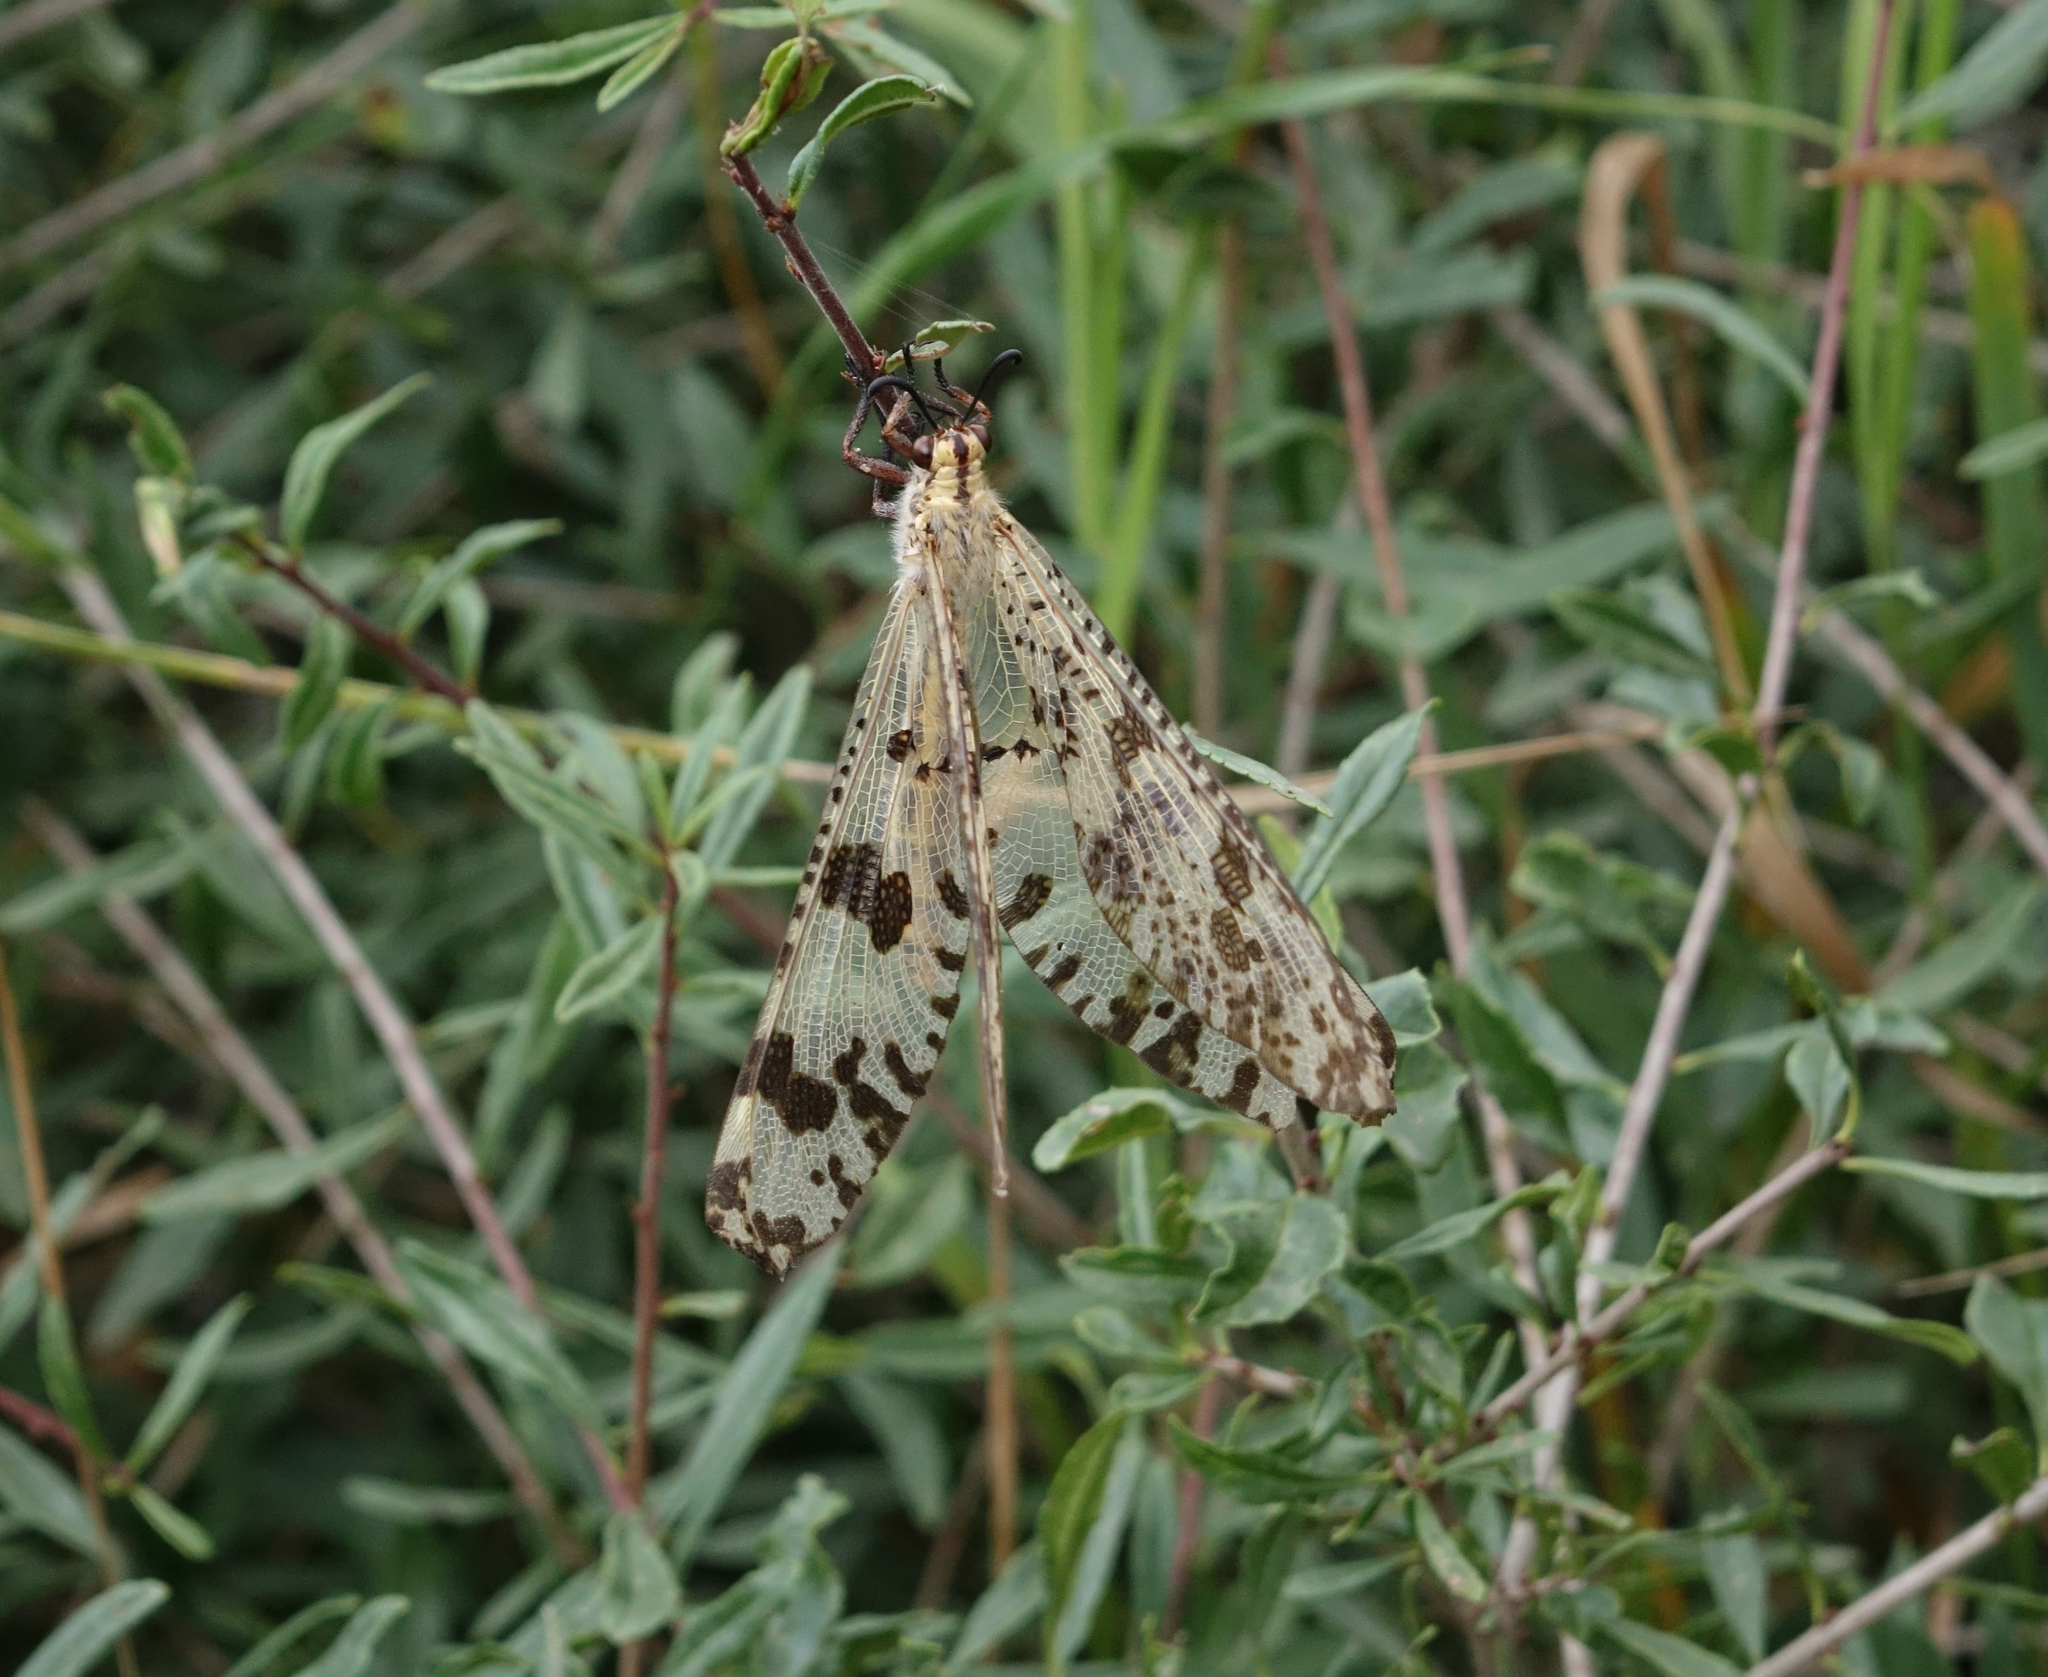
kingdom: Animalia
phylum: Arthropoda
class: Insecta
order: Neuroptera
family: Myrmeleontidae
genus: Palpares
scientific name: Palpares libelluloides
